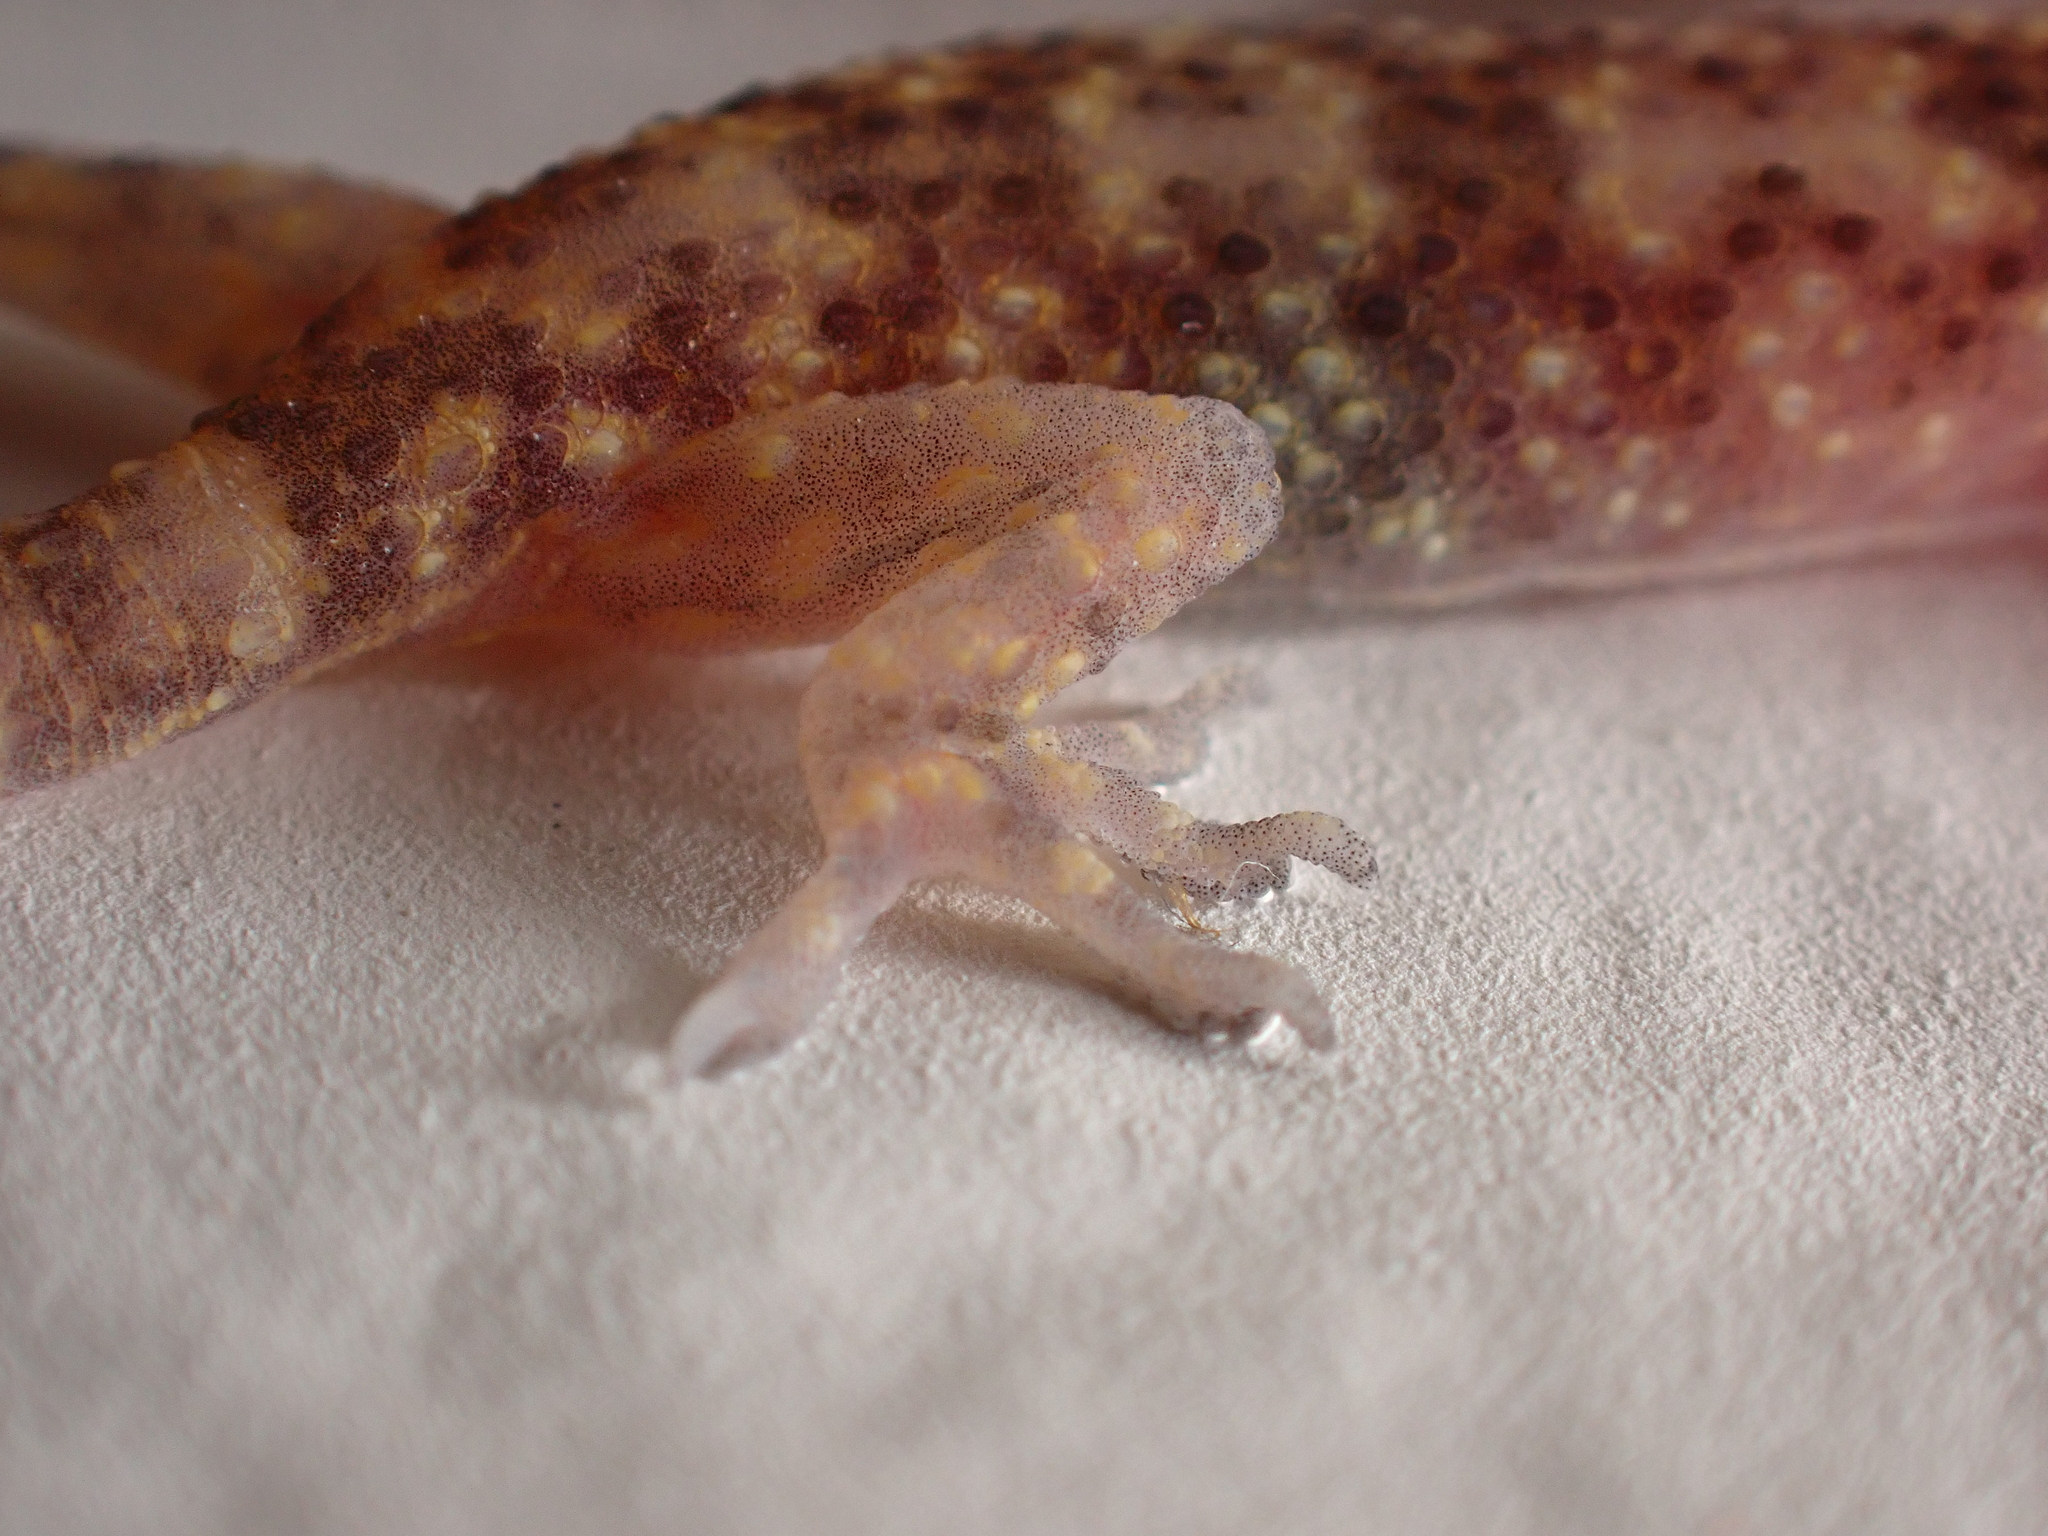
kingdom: Animalia
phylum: Chordata
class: Squamata
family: Gekkonidae
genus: Hemidactylus
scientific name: Hemidactylus turcicus
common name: Turkish gecko
